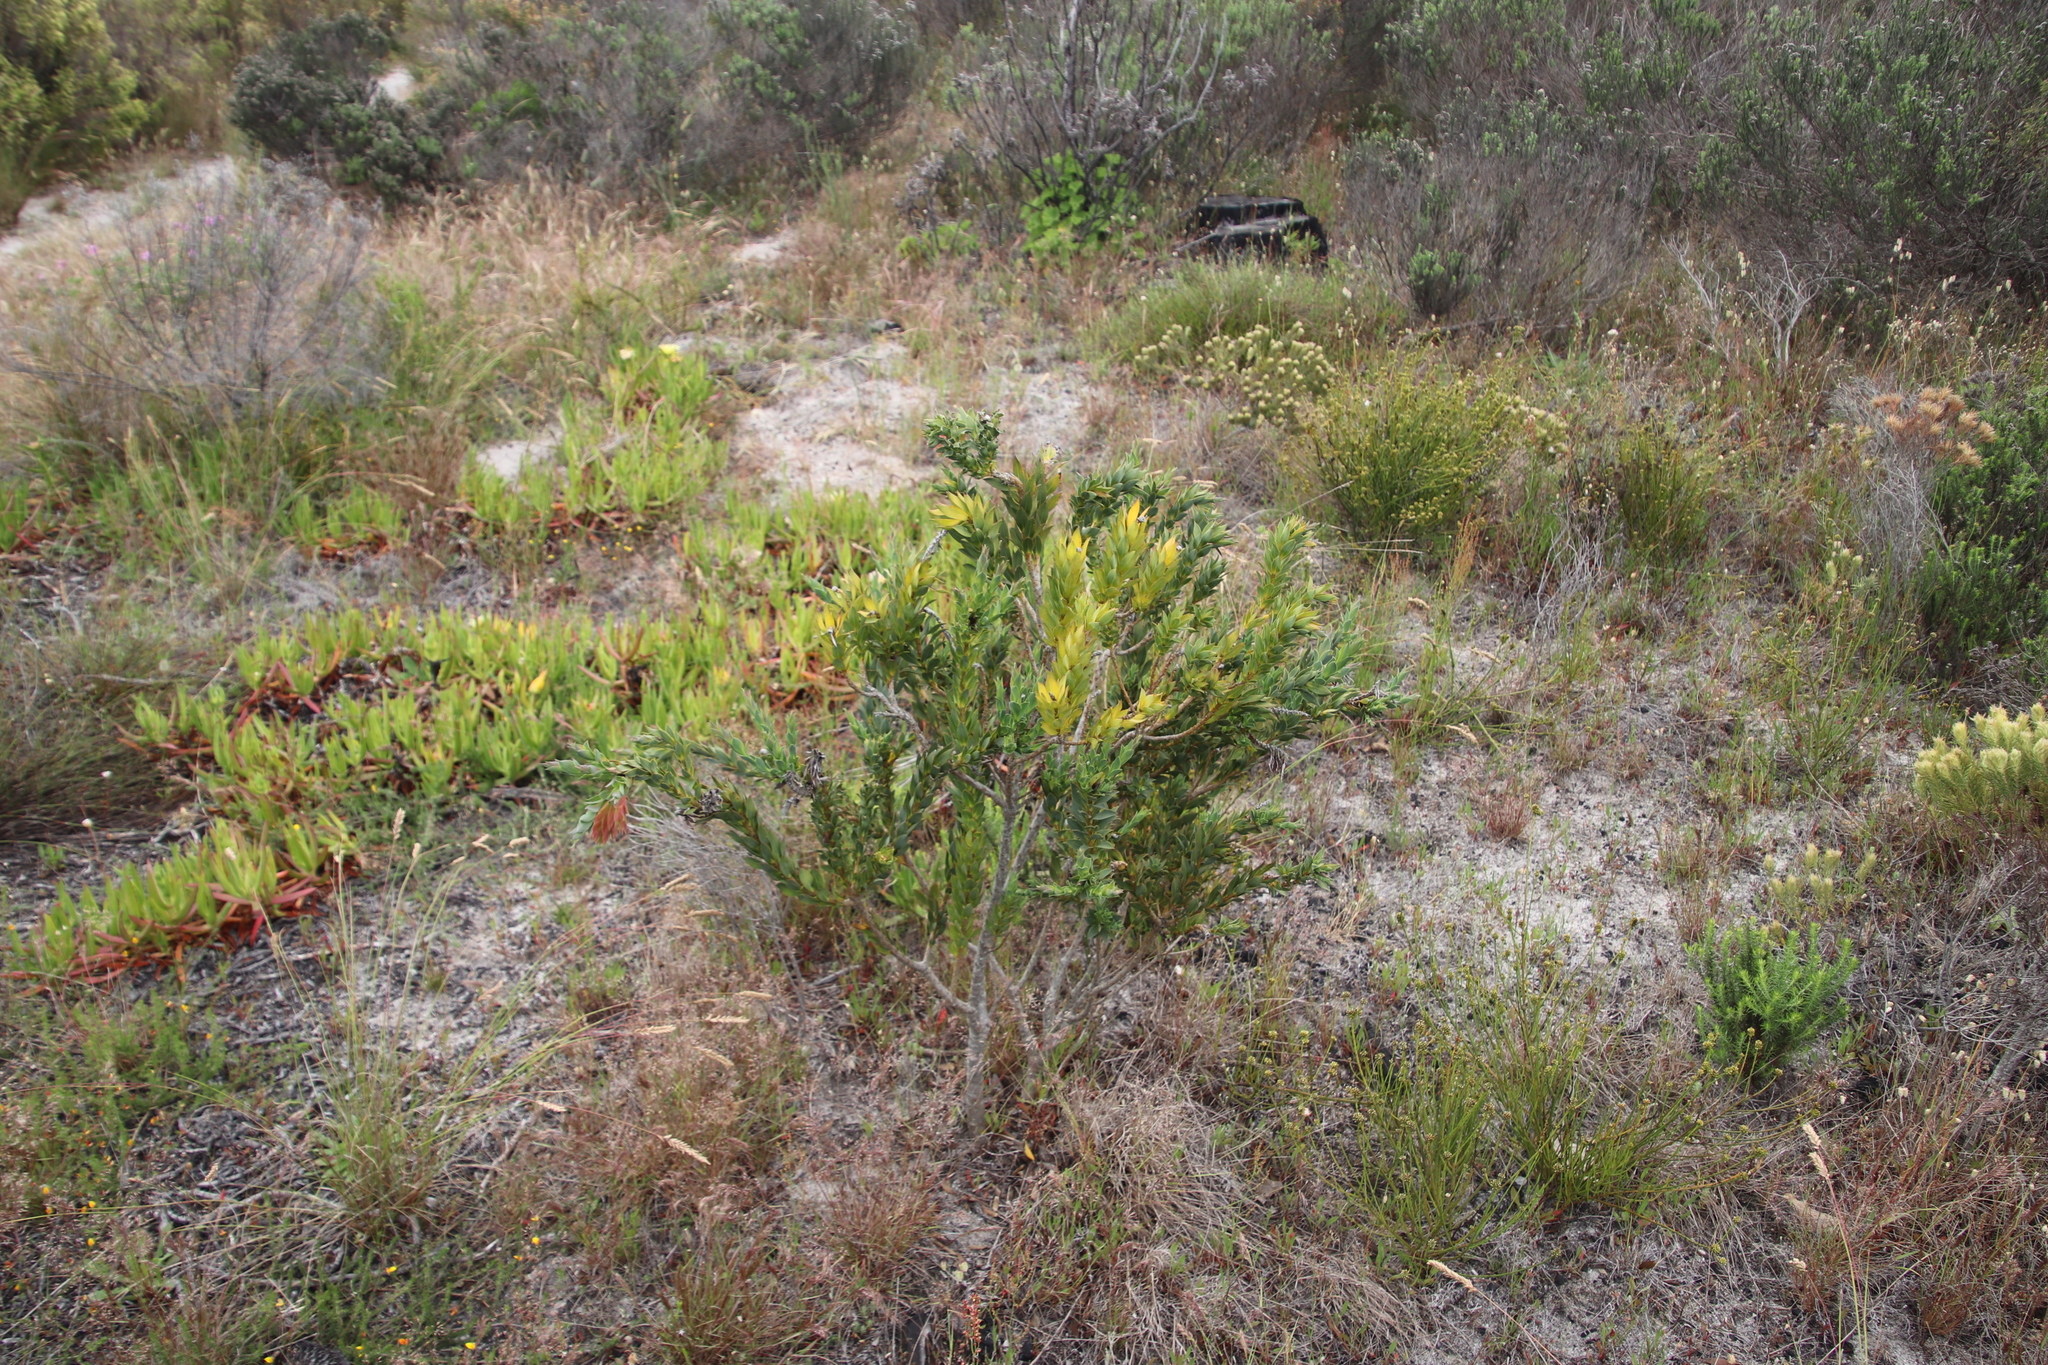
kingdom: Plantae
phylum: Tracheophyta
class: Magnoliopsida
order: Fabales
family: Fabaceae
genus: Liparia
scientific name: Liparia splendens
